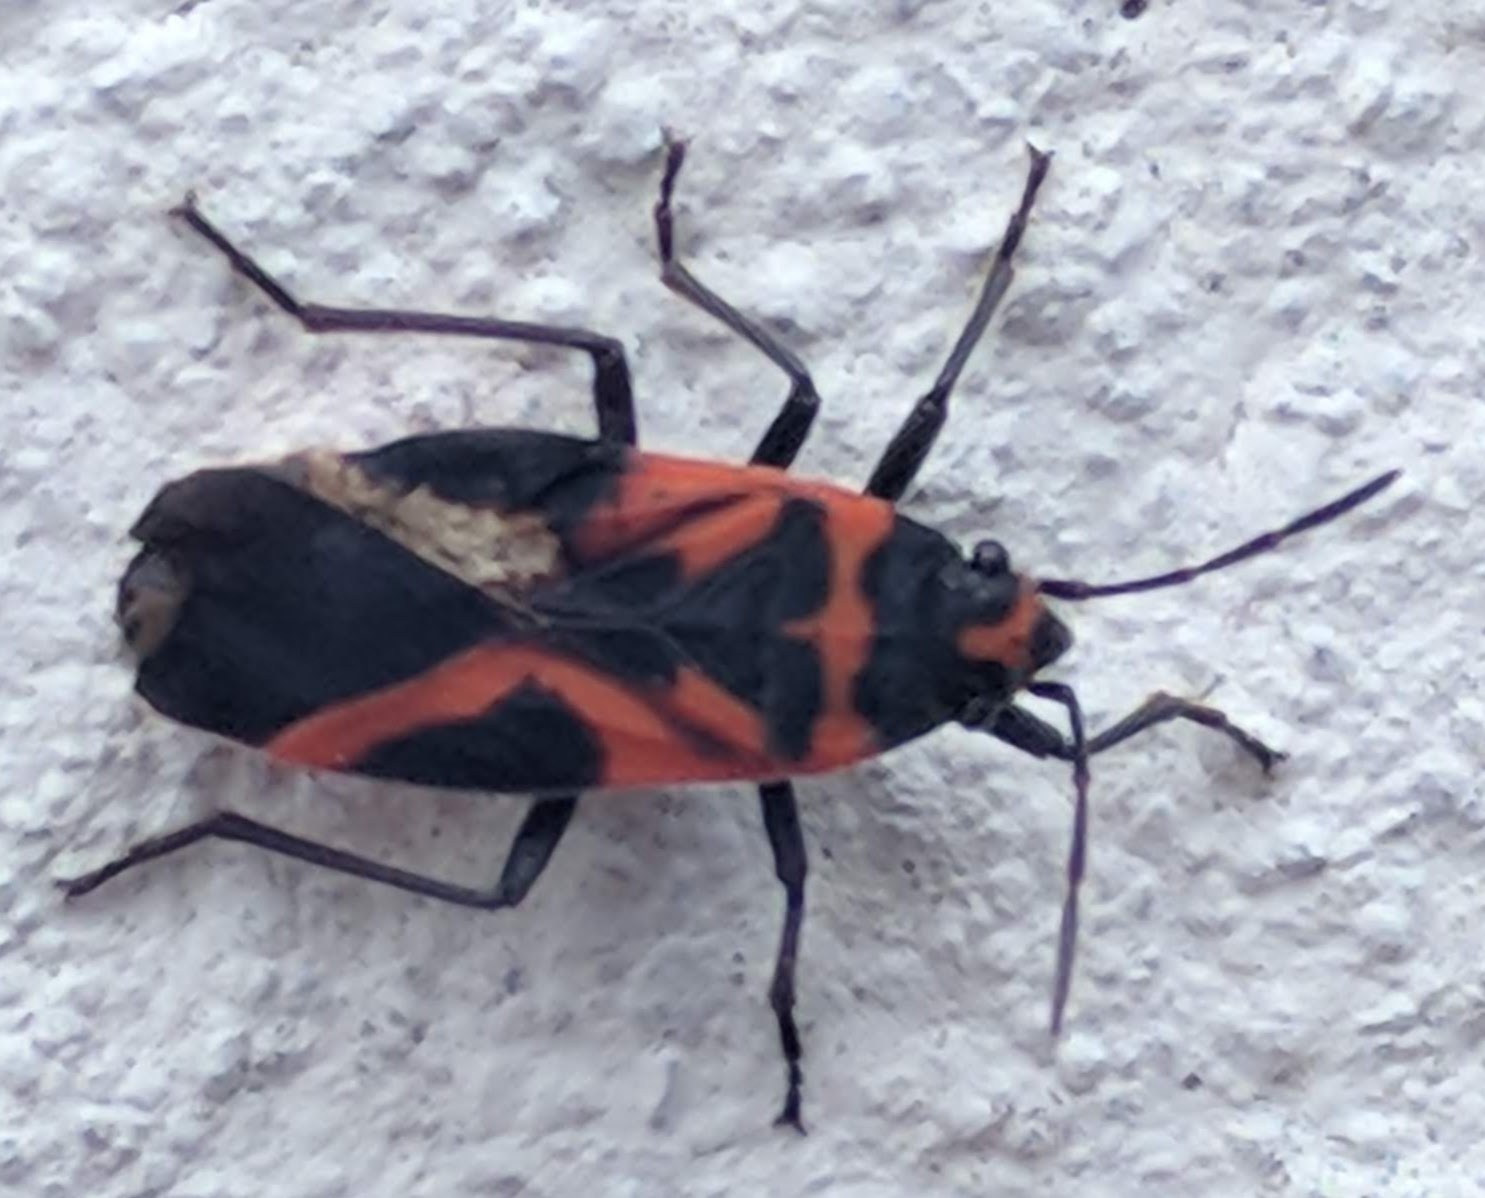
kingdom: Animalia
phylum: Arthropoda
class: Insecta
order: Hemiptera
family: Lygaeidae
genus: Lygaeus
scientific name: Lygaeus turcicus
